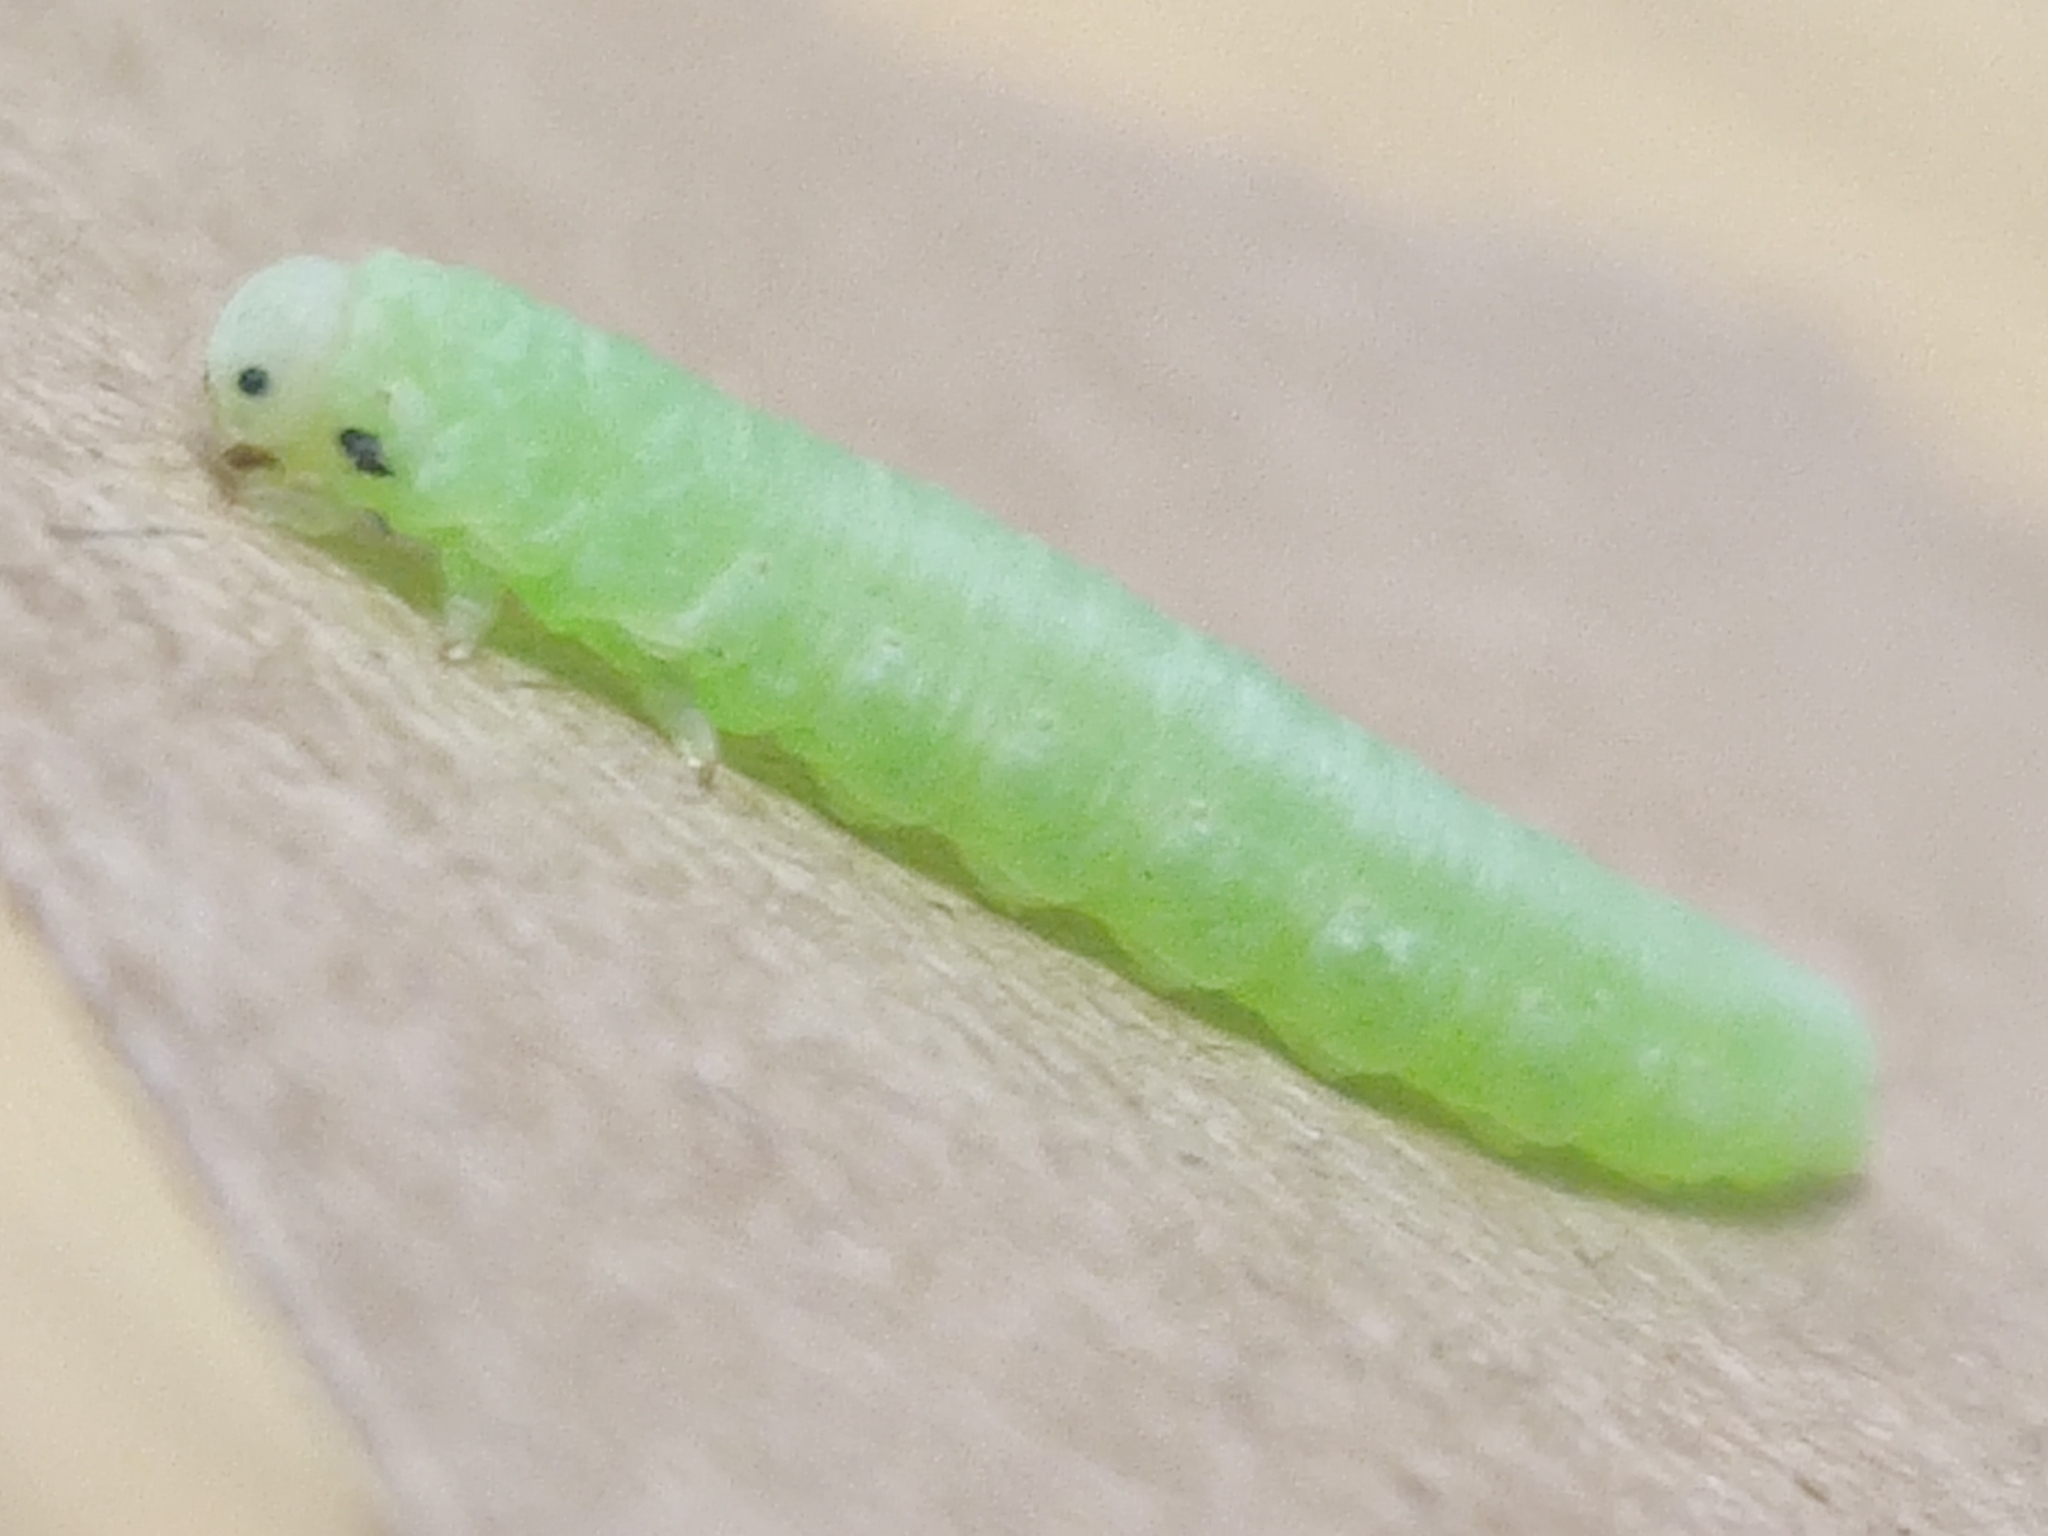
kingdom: Animalia
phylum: Arthropoda
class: Insecta
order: Hymenoptera
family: Tenthredinidae
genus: Monsoma
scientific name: Monsoma pulveratum
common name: Green alder sawfly
